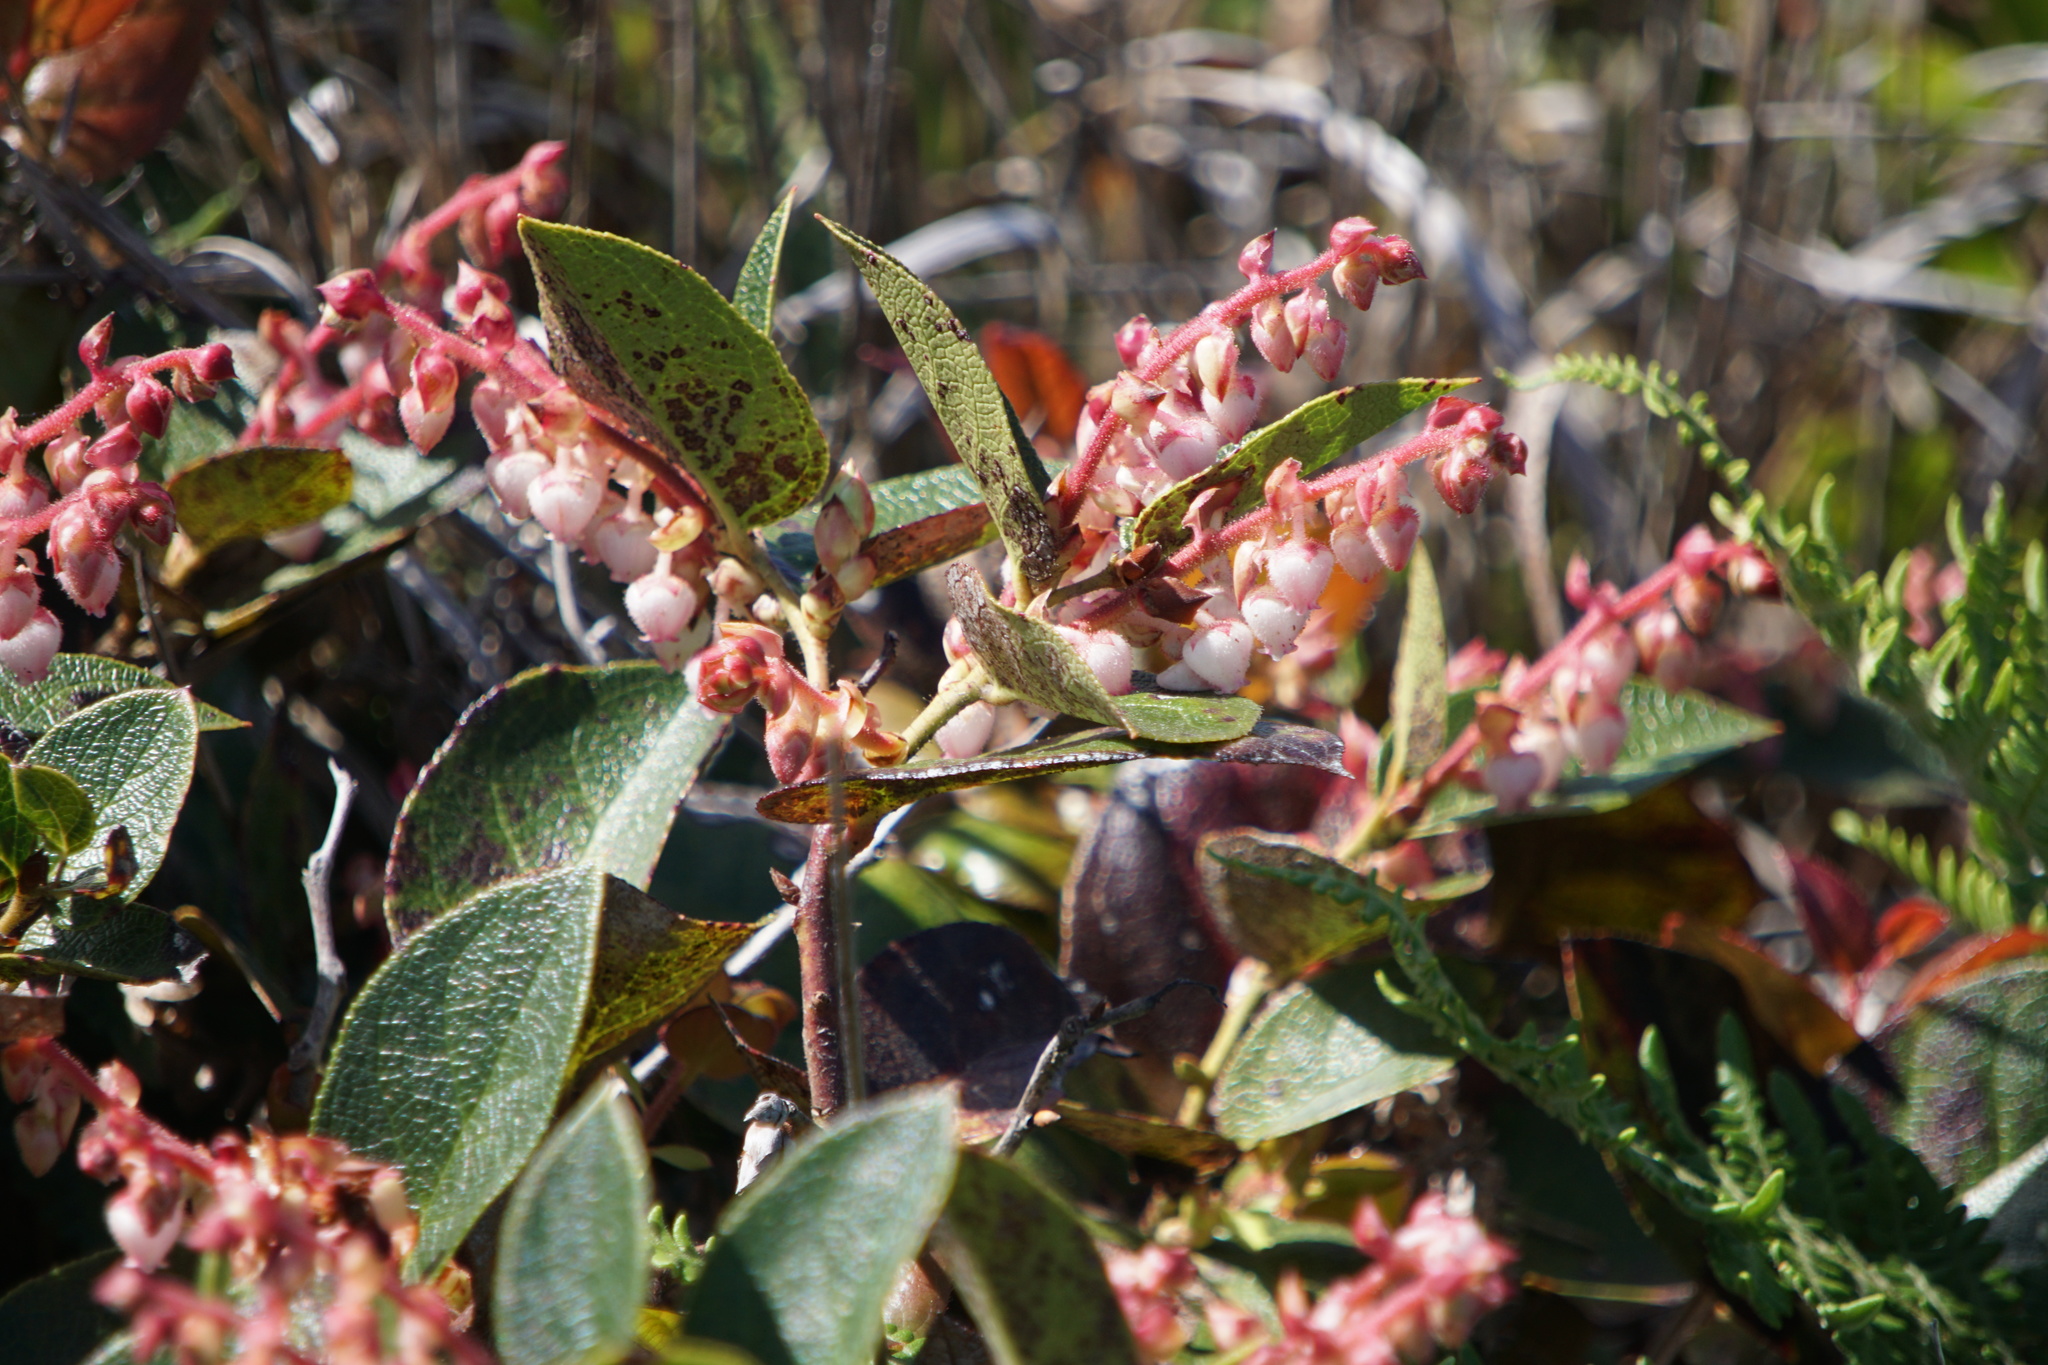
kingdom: Plantae
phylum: Tracheophyta
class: Magnoliopsida
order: Ericales
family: Ericaceae
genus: Gaultheria
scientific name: Gaultheria shallon
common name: Shallon
